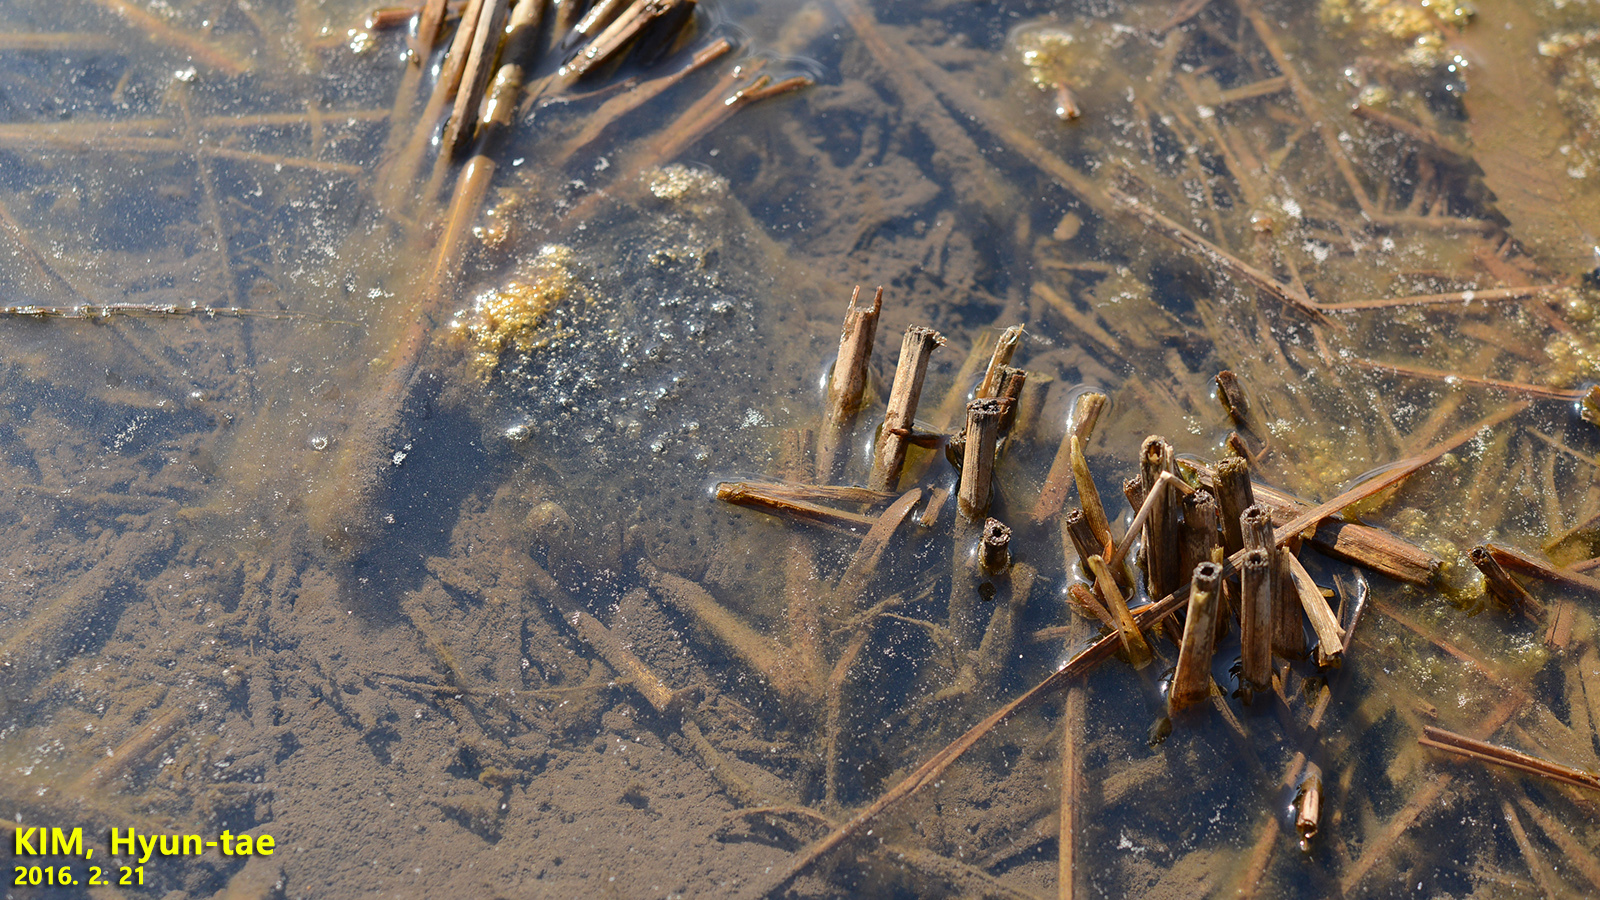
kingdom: Animalia
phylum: Chordata
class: Amphibia
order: Anura
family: Ranidae
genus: Rana
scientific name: Rana coreana
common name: Korean brown frog
